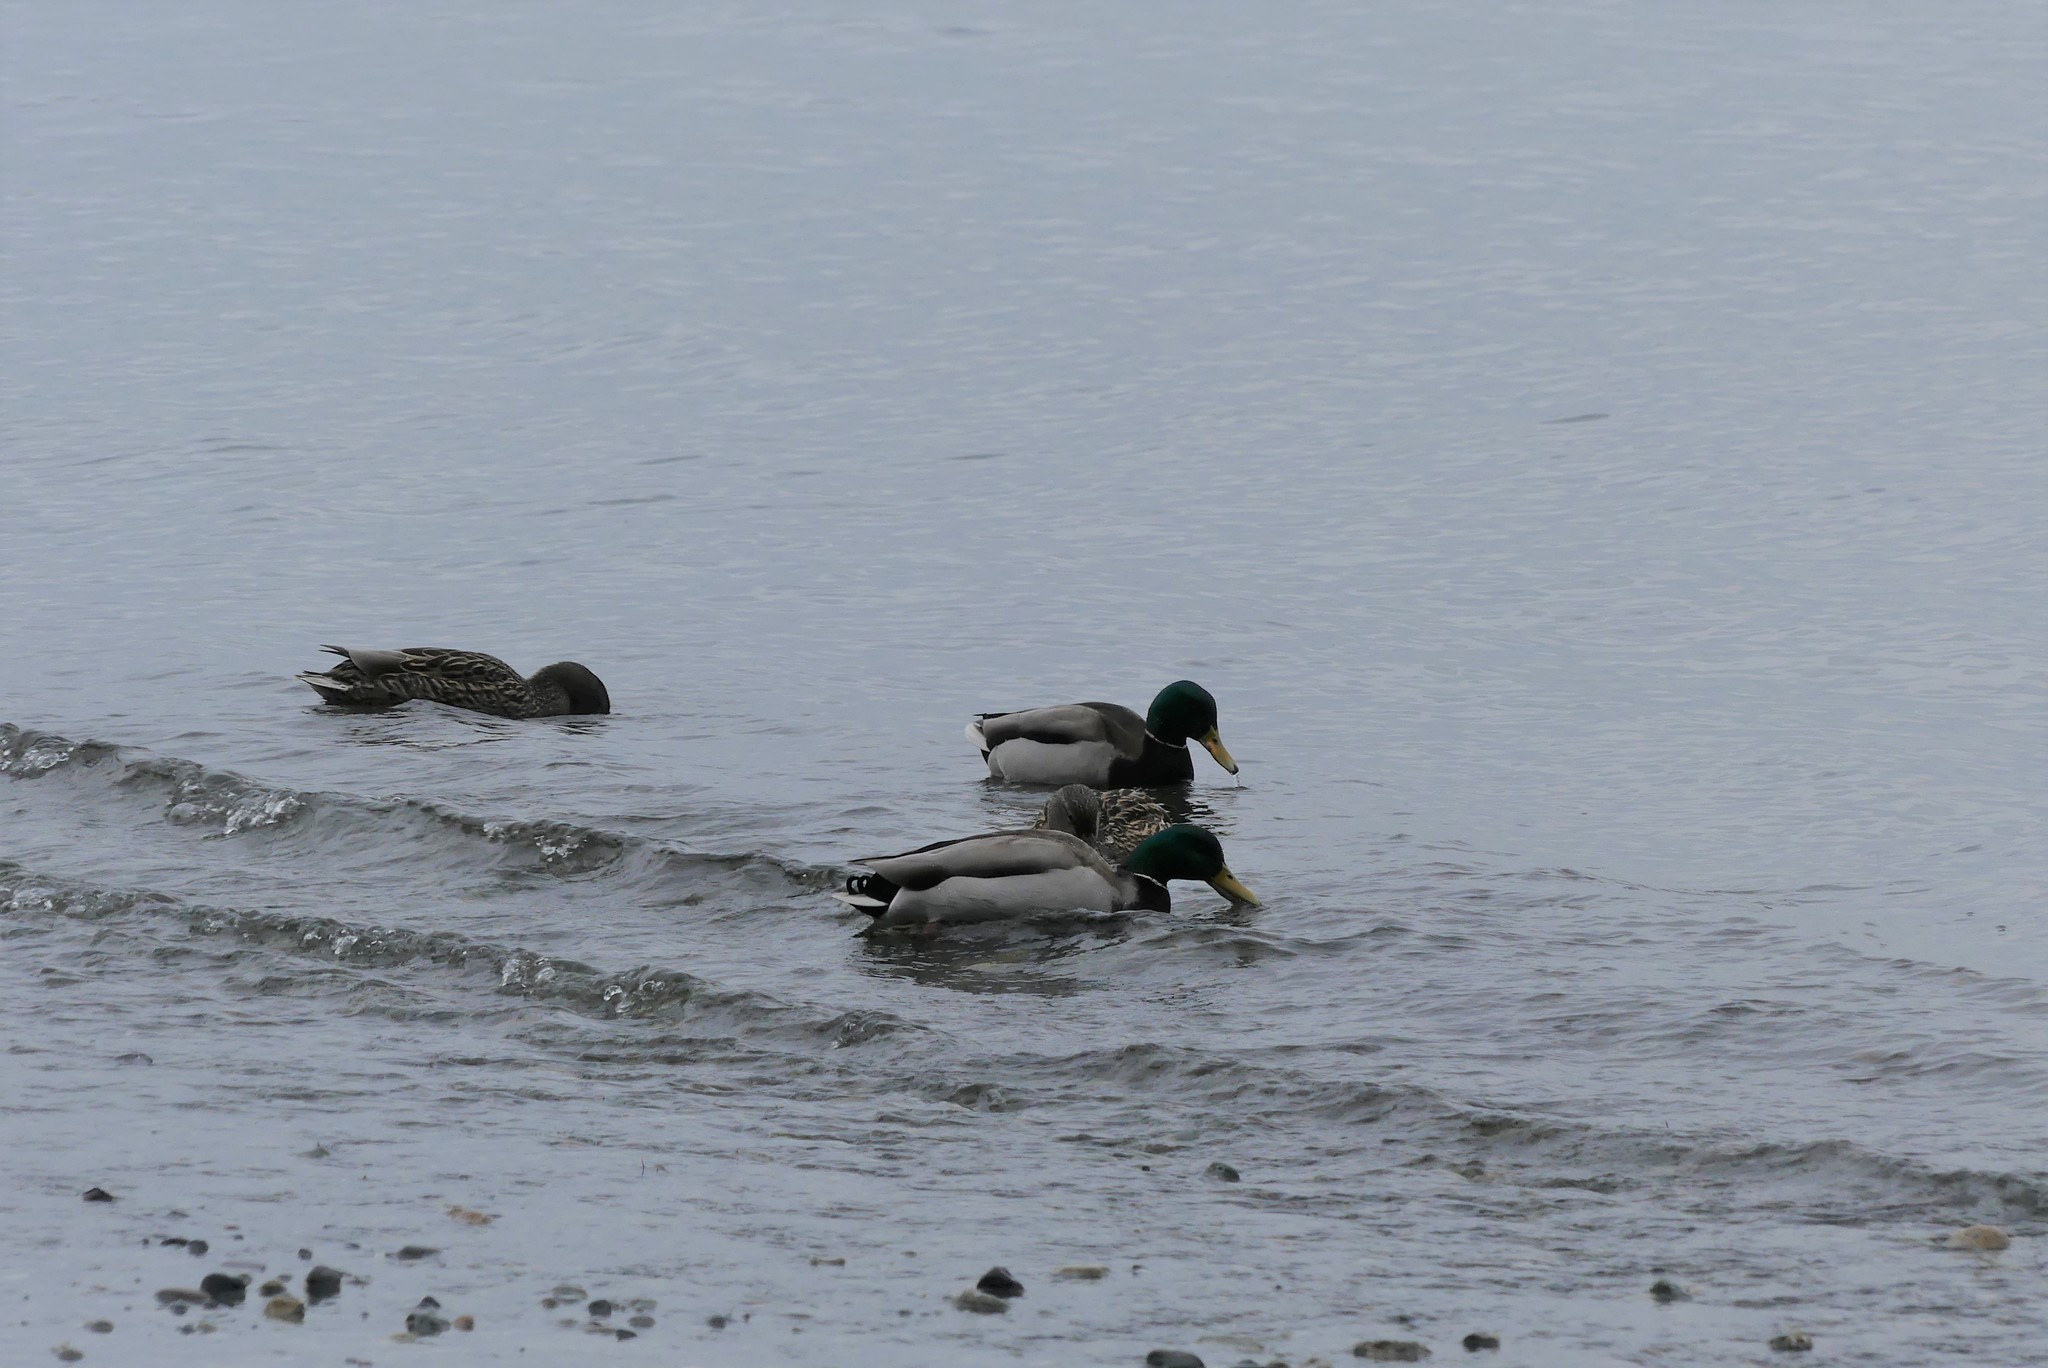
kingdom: Animalia
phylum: Chordata
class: Aves
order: Anseriformes
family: Anatidae
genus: Anas
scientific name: Anas platyrhynchos
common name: Mallard
